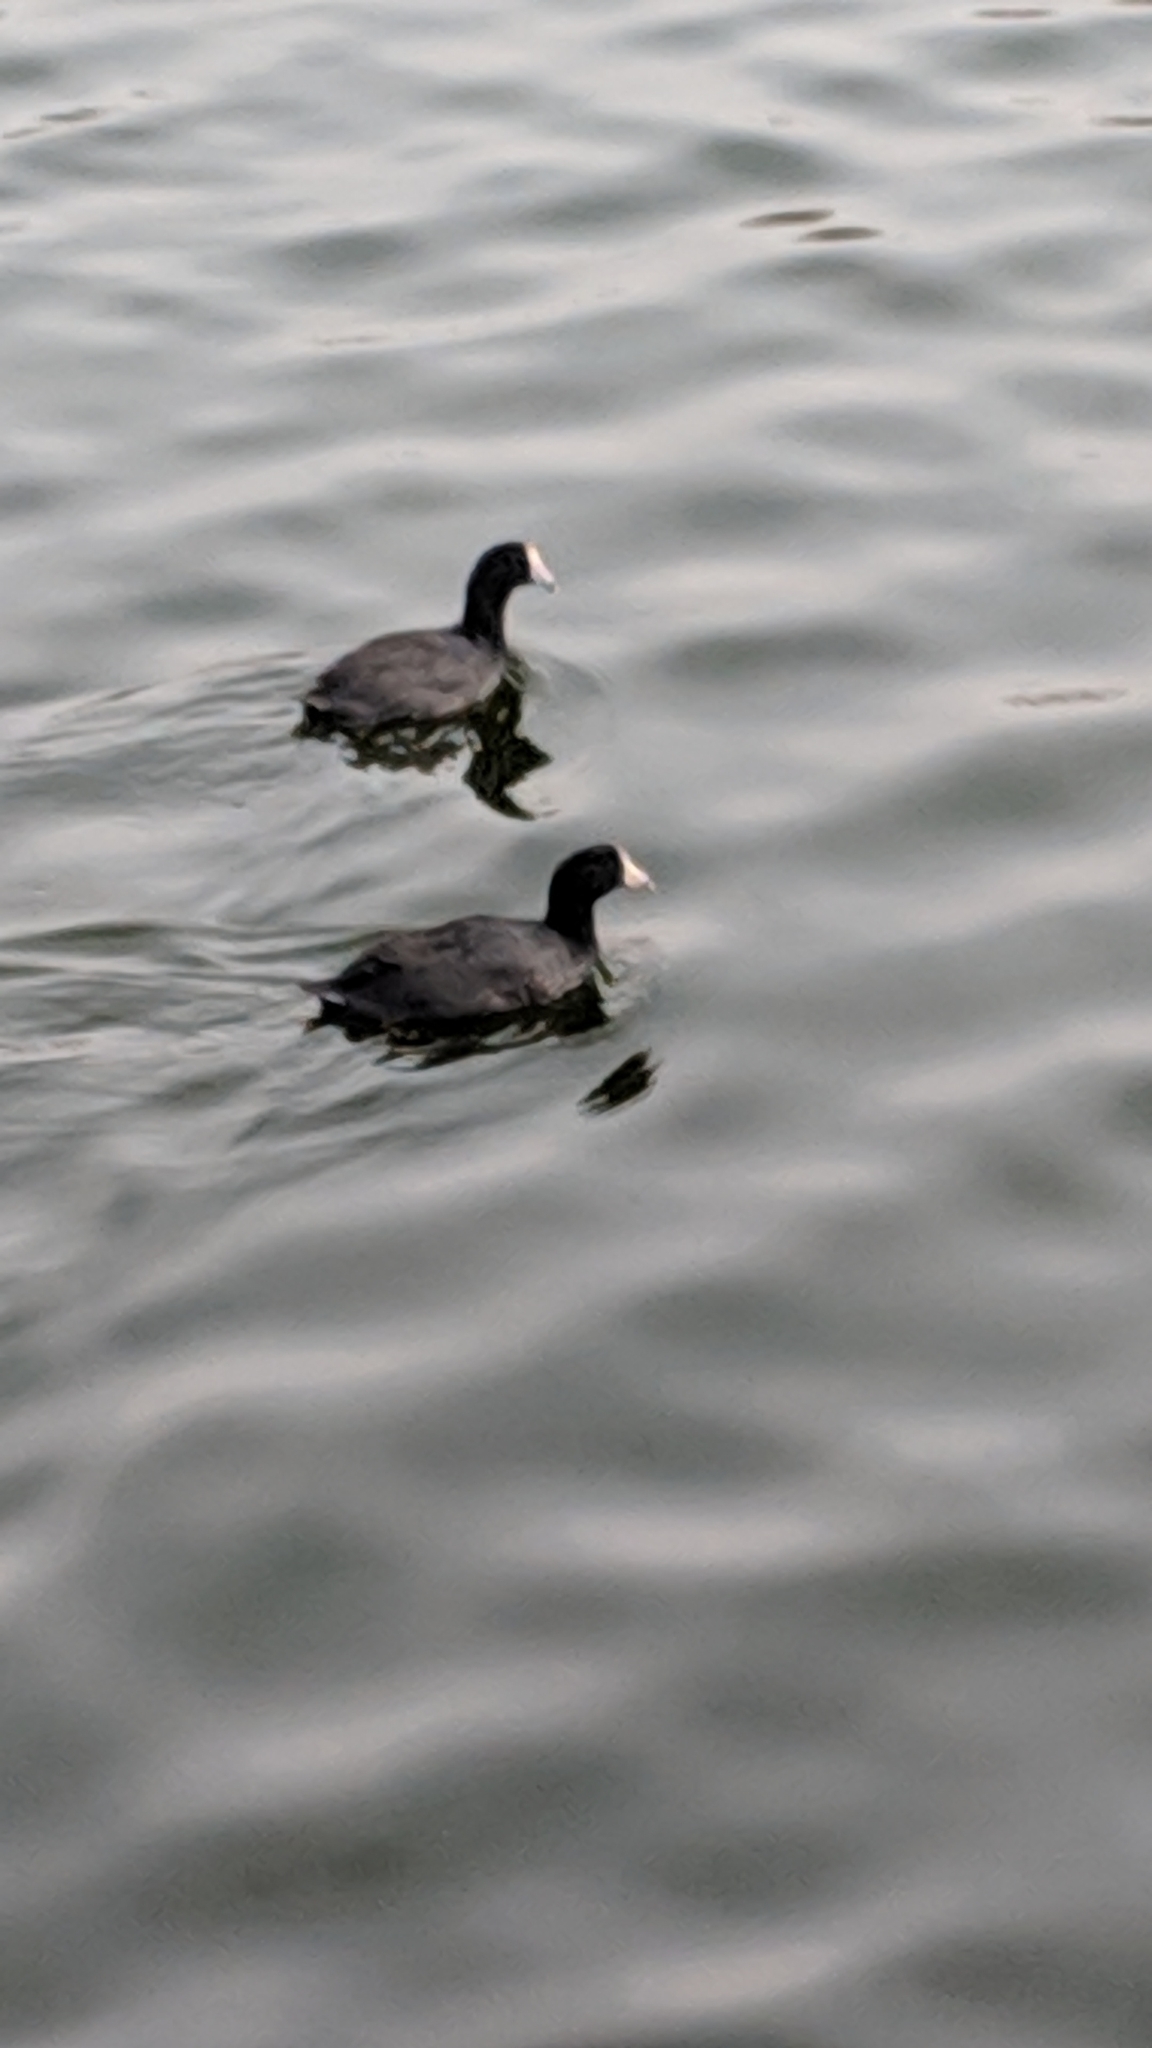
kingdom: Animalia
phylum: Chordata
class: Aves
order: Gruiformes
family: Rallidae
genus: Fulica
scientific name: Fulica americana
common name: American coot
